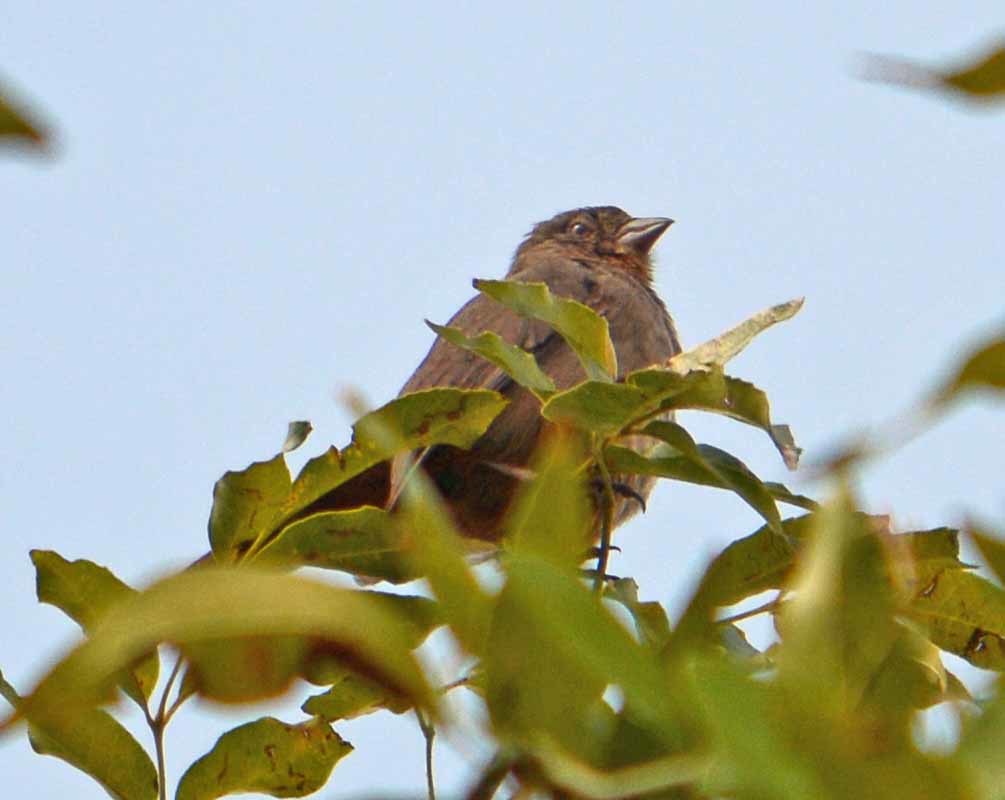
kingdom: Animalia
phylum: Chordata
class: Aves
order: Passeriformes
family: Passerellidae
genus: Melozone
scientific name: Melozone fusca
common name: Canyon towhee
